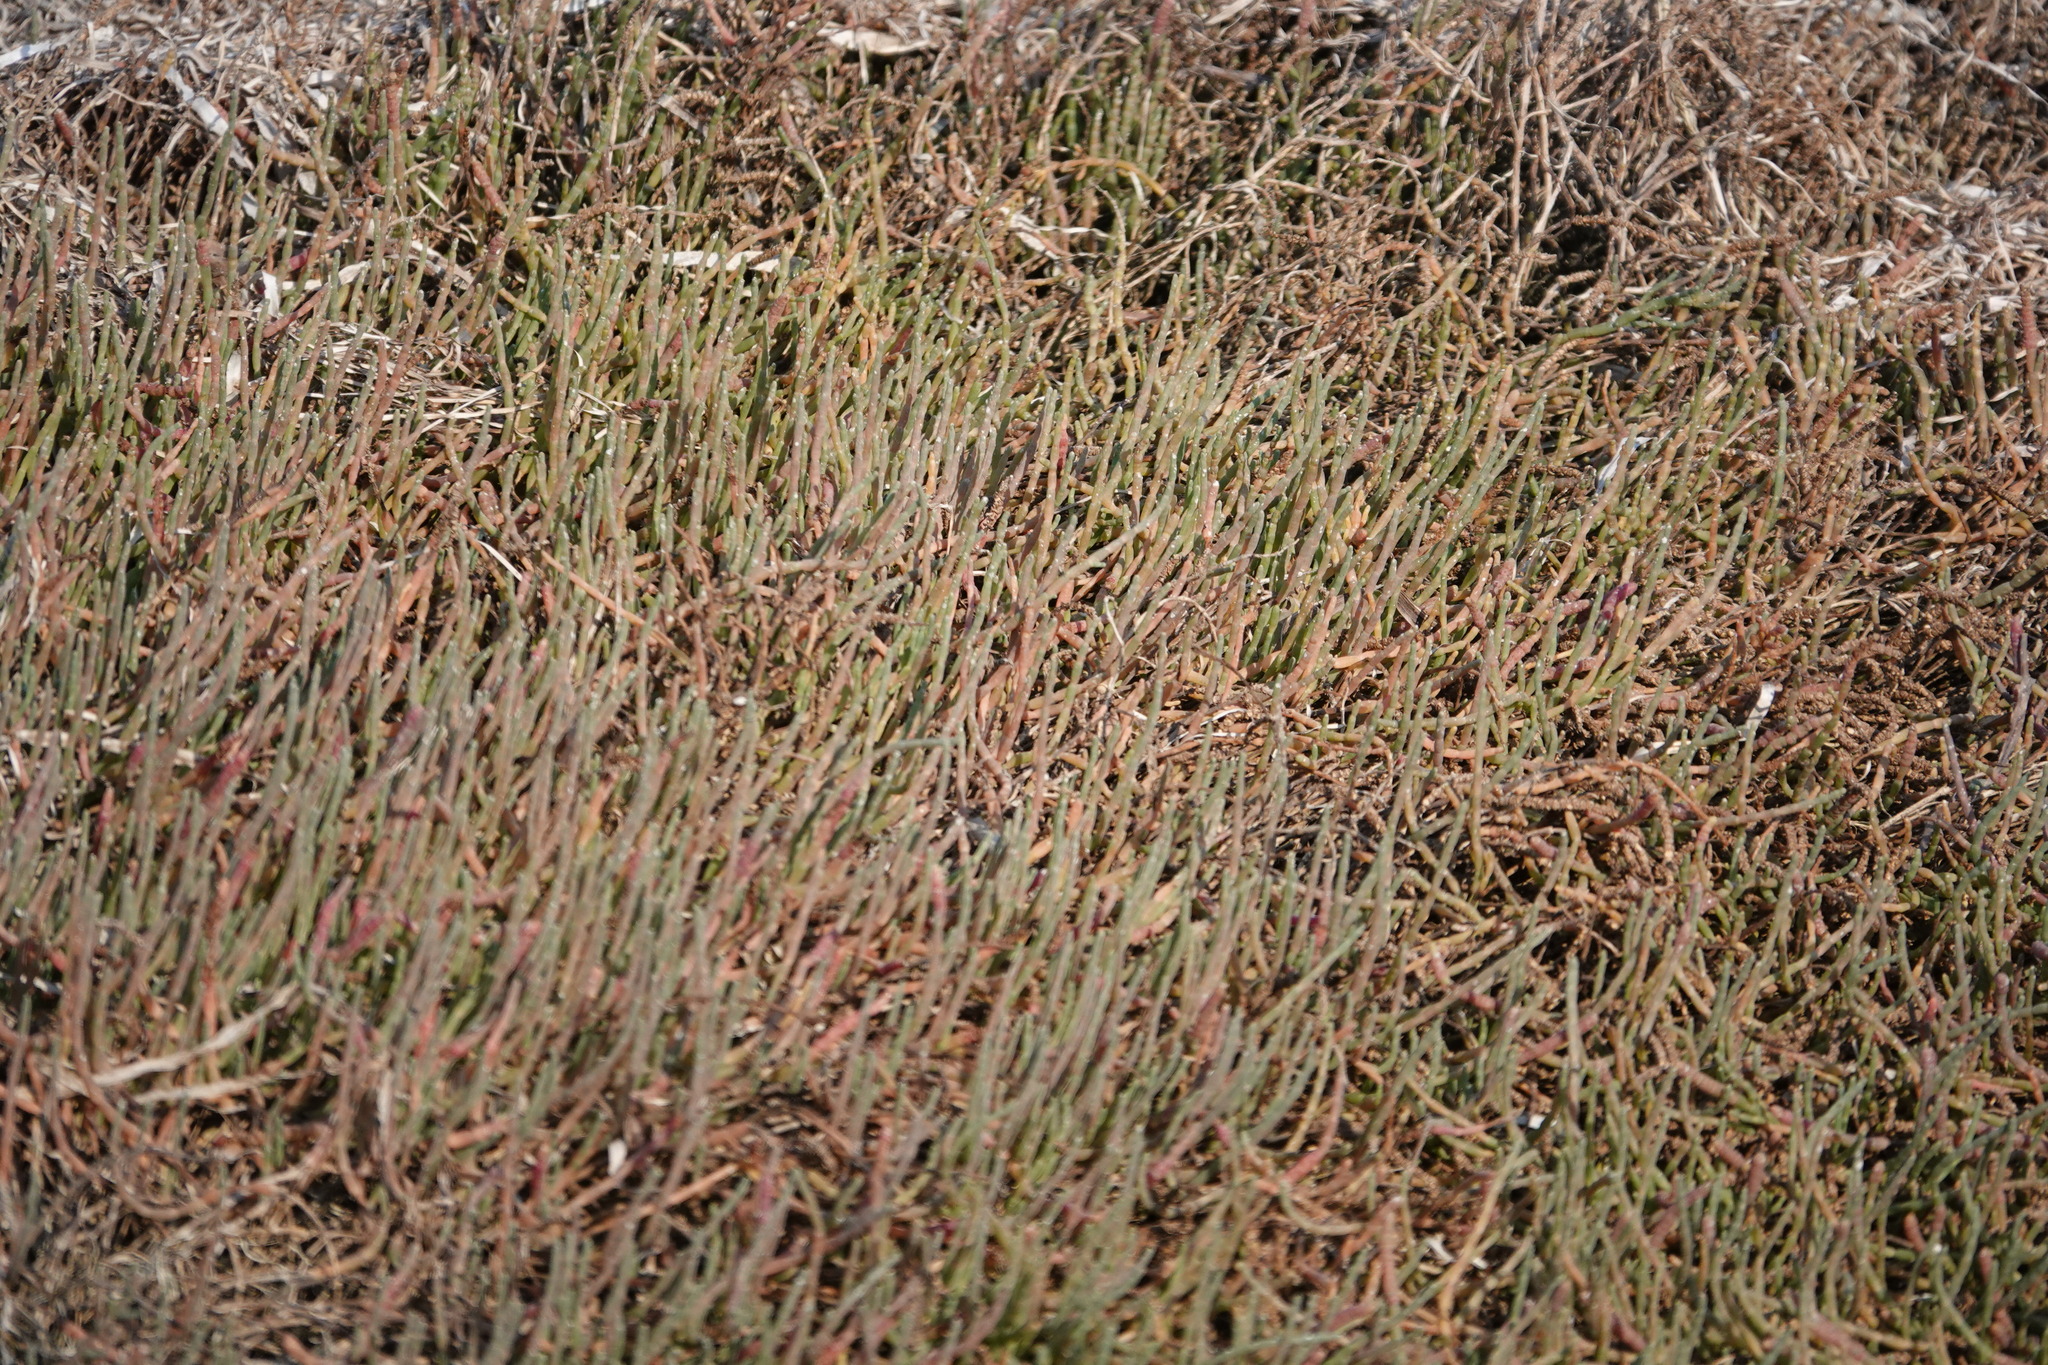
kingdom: Plantae
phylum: Tracheophyta
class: Magnoliopsida
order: Caryophyllales
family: Amaranthaceae
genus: Salicornia
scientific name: Salicornia pacifica
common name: Pacific glasswort
